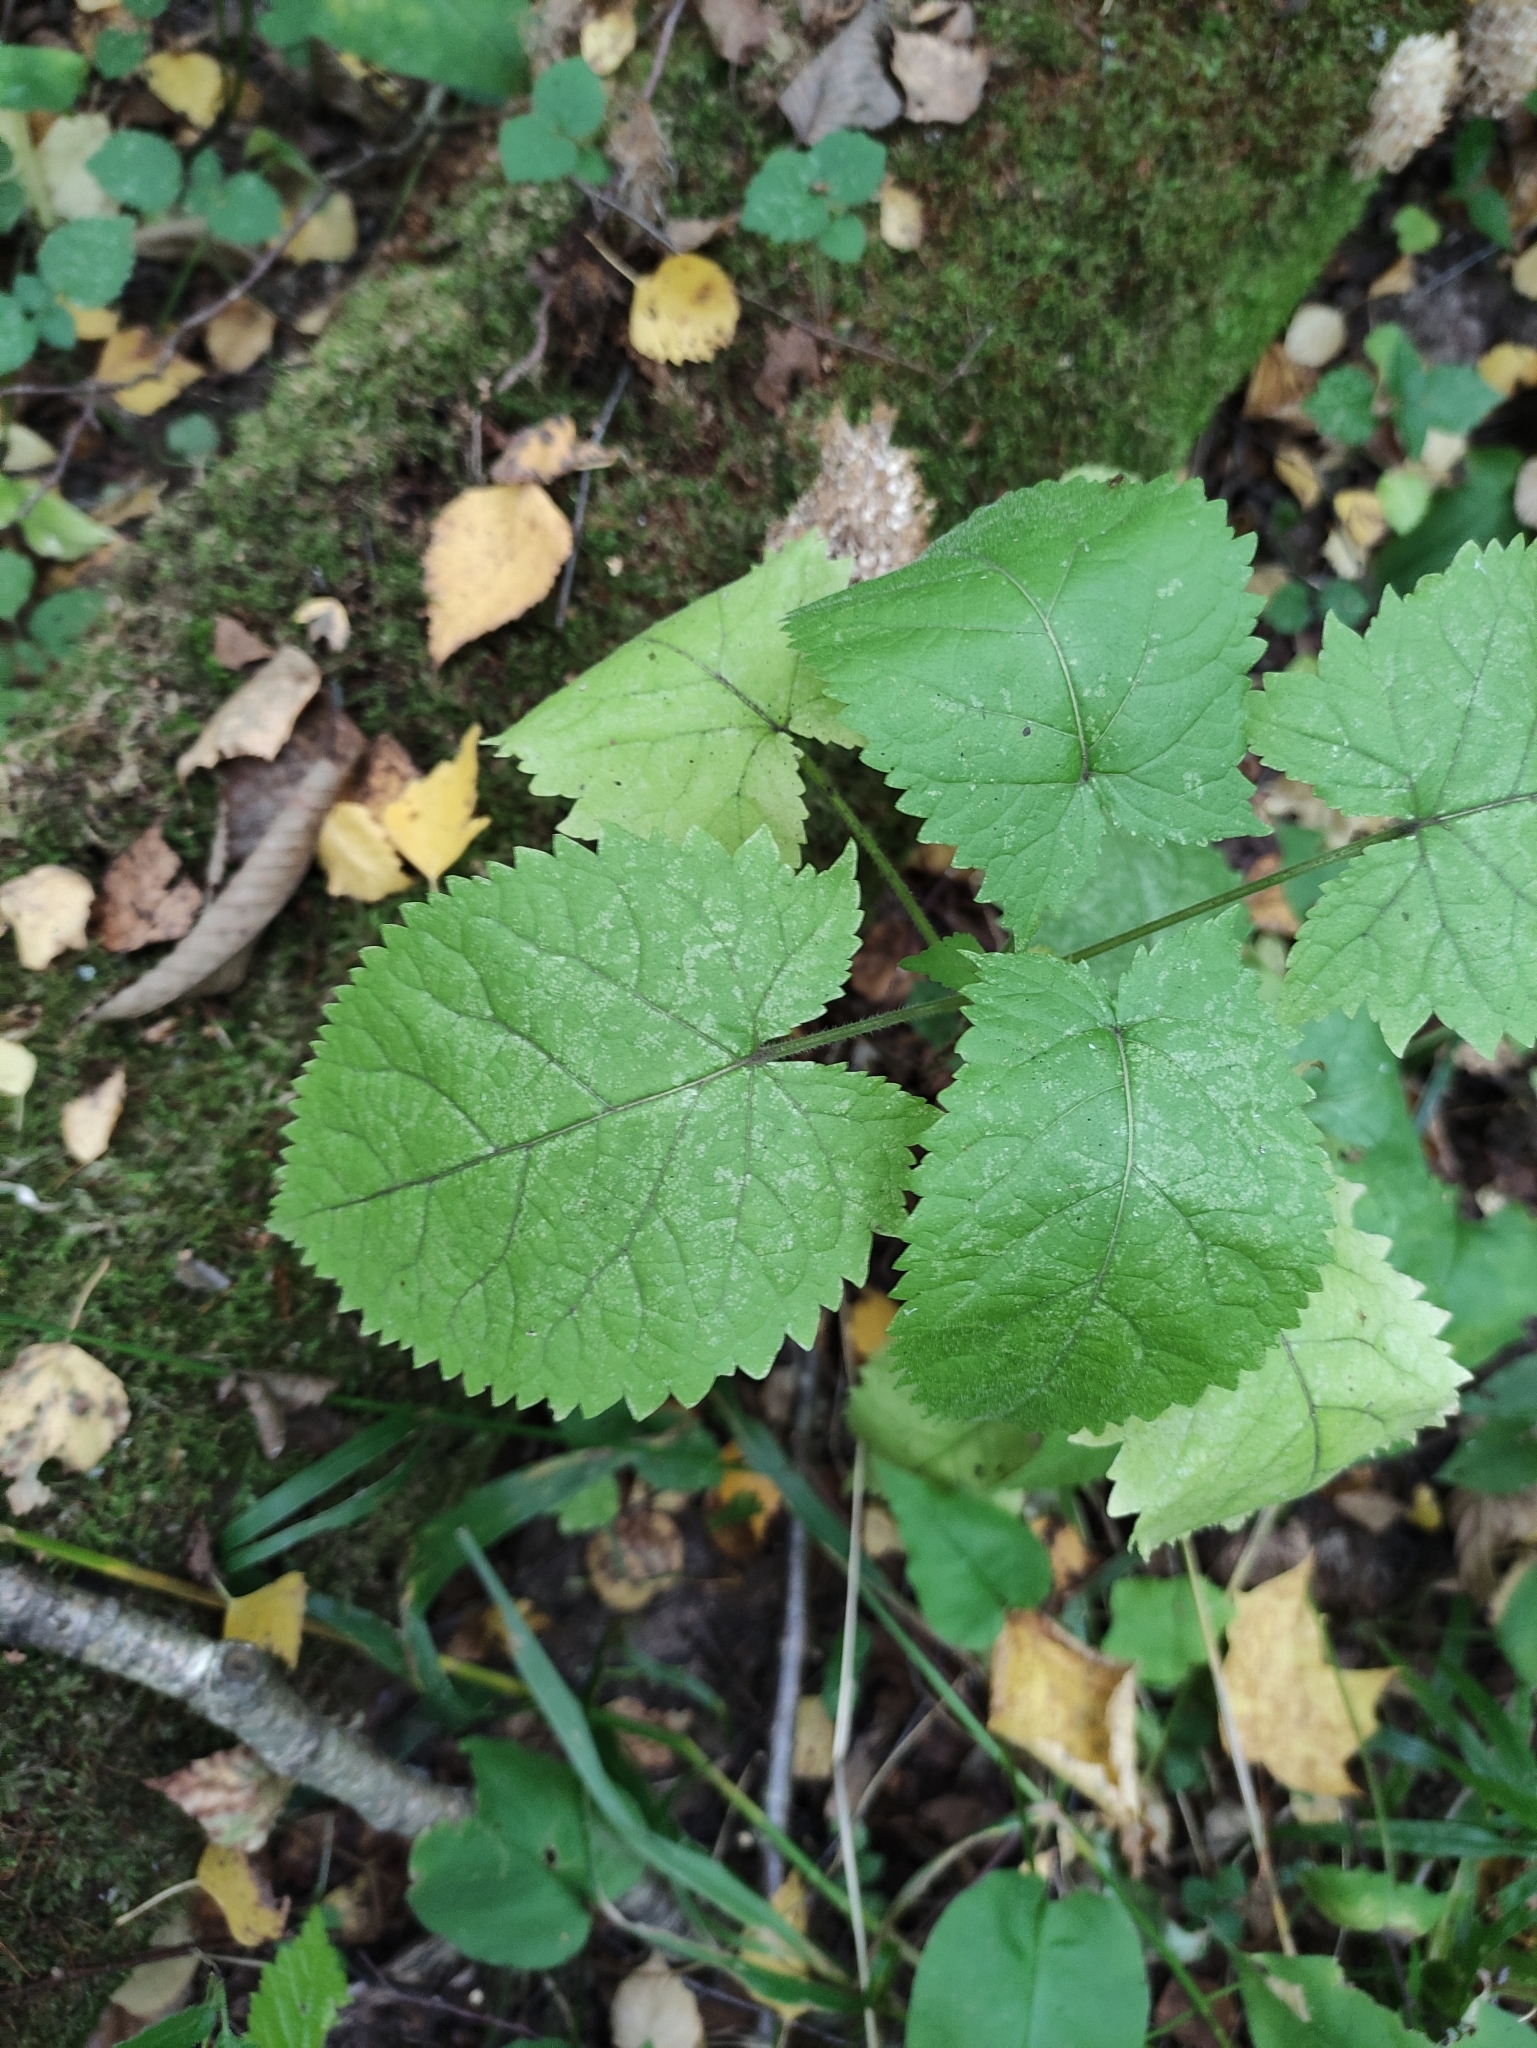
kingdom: Plantae
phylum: Tracheophyta
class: Magnoliopsida
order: Lamiales
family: Lamiaceae
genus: Salvia
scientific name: Salvia glutinosa
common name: Sticky clary
